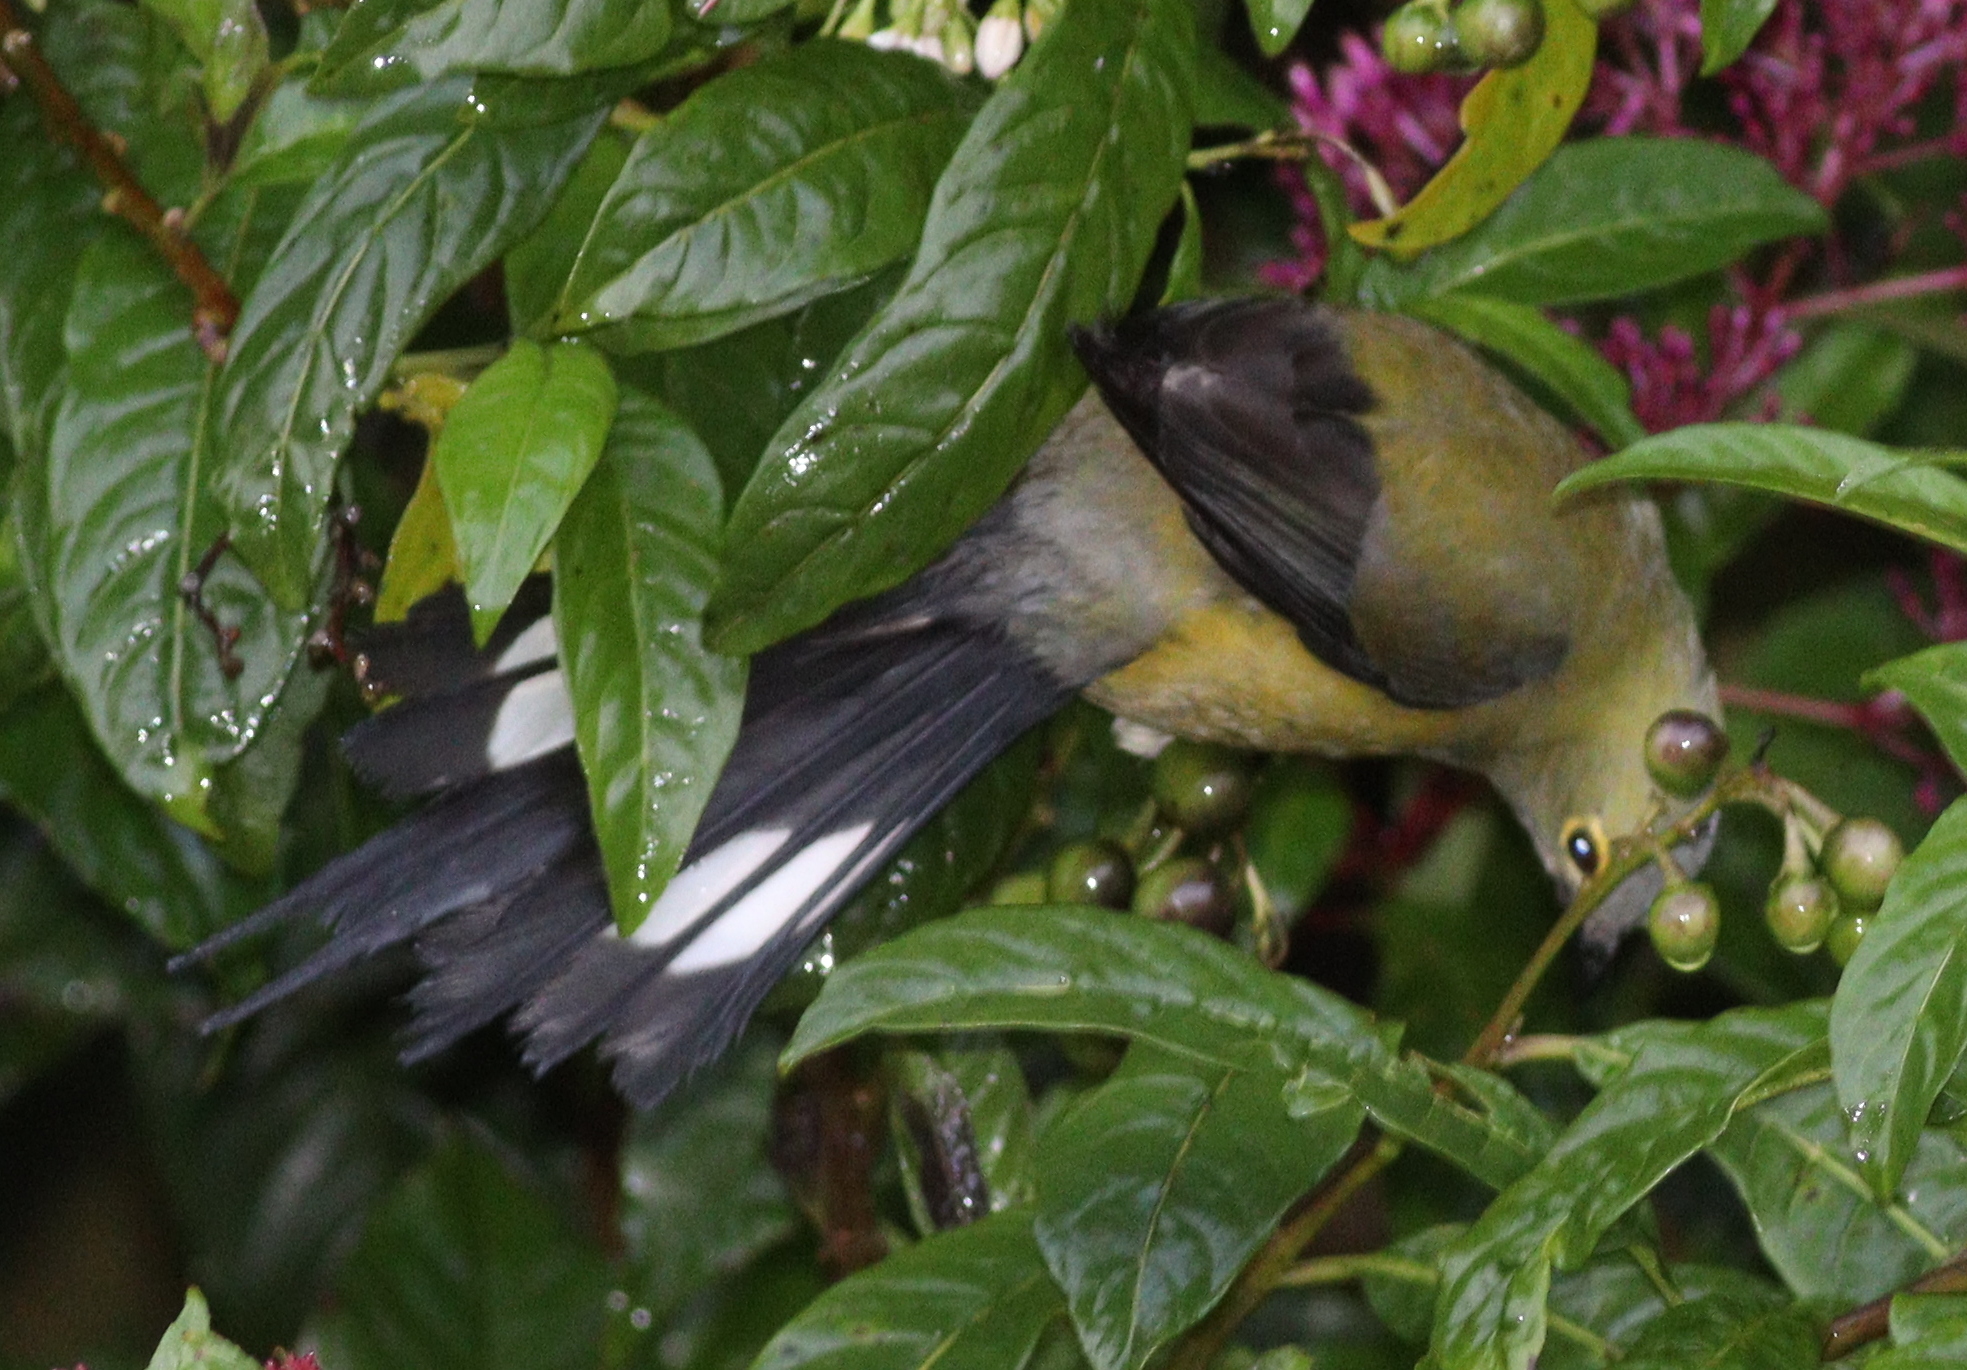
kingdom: Animalia
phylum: Chordata
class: Aves
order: Passeriformes
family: Ptilogonatidae
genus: Ptilogonys
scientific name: Ptilogonys caudatus
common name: Long-tailed silky-flycatcher
